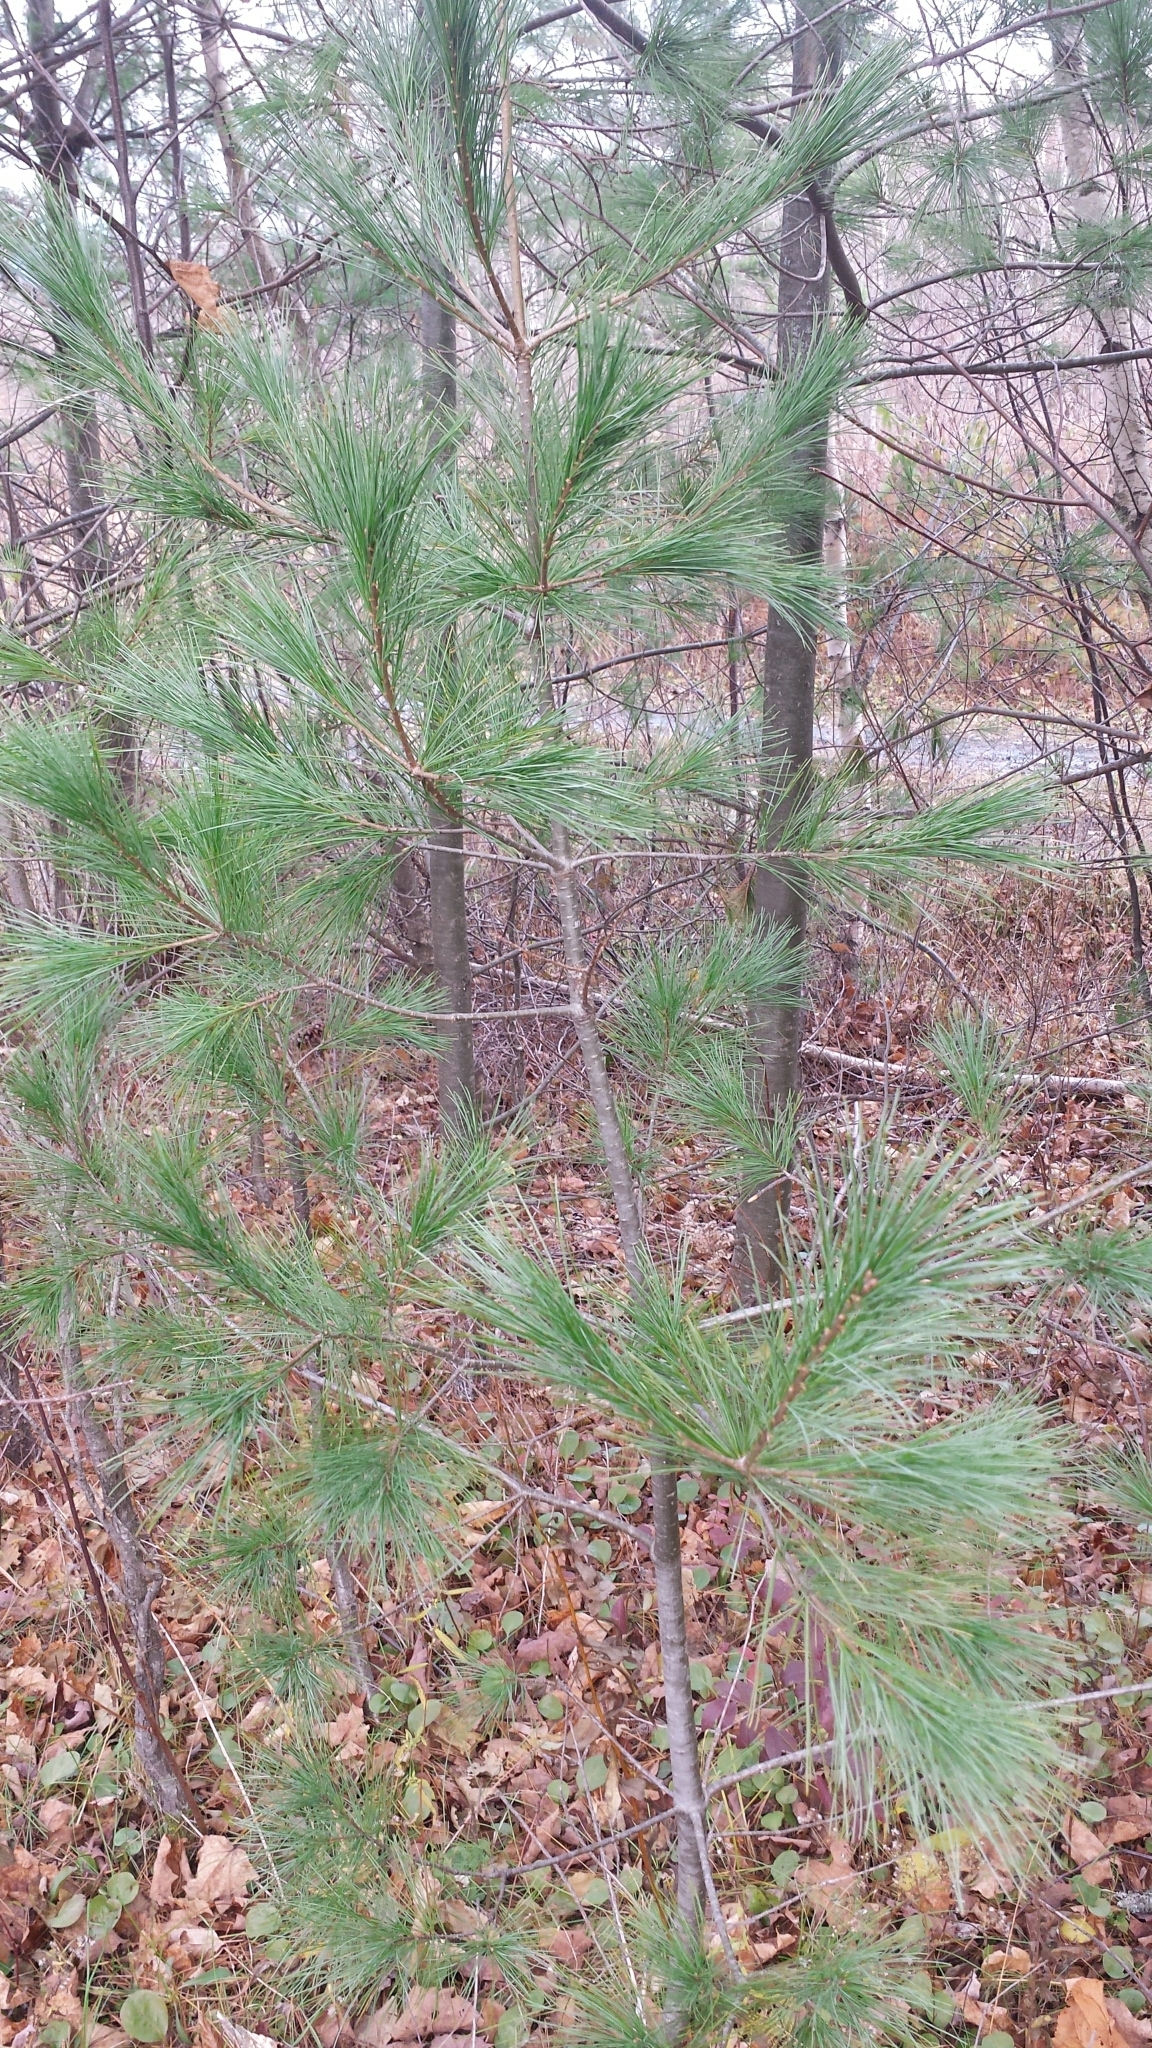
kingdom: Plantae
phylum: Tracheophyta
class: Pinopsida
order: Pinales
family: Pinaceae
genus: Pinus
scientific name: Pinus strobus
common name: Weymouth pine
